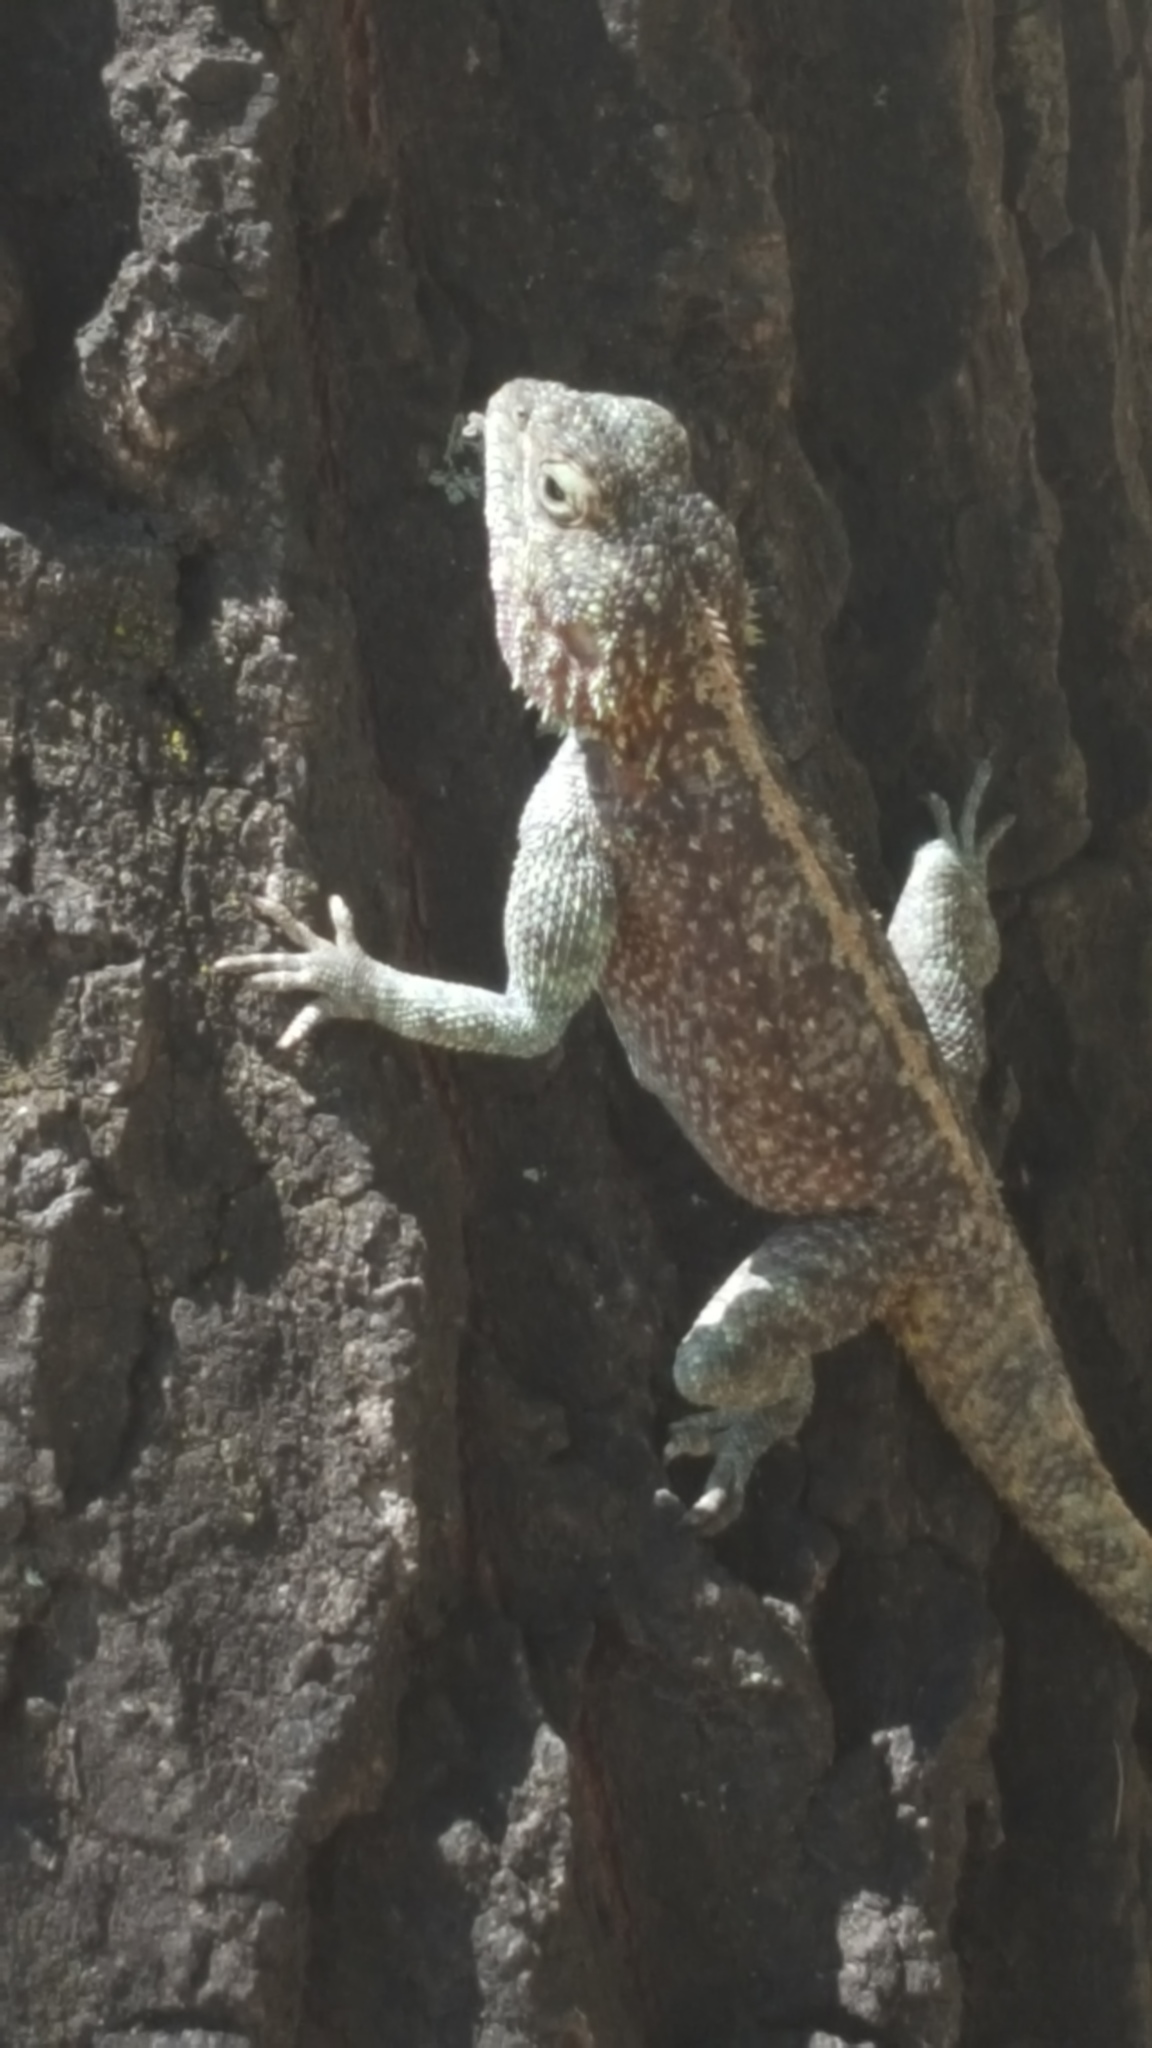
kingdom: Animalia
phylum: Chordata
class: Squamata
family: Agamidae
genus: Agama
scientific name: Agama atra
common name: Southern african rock agama
